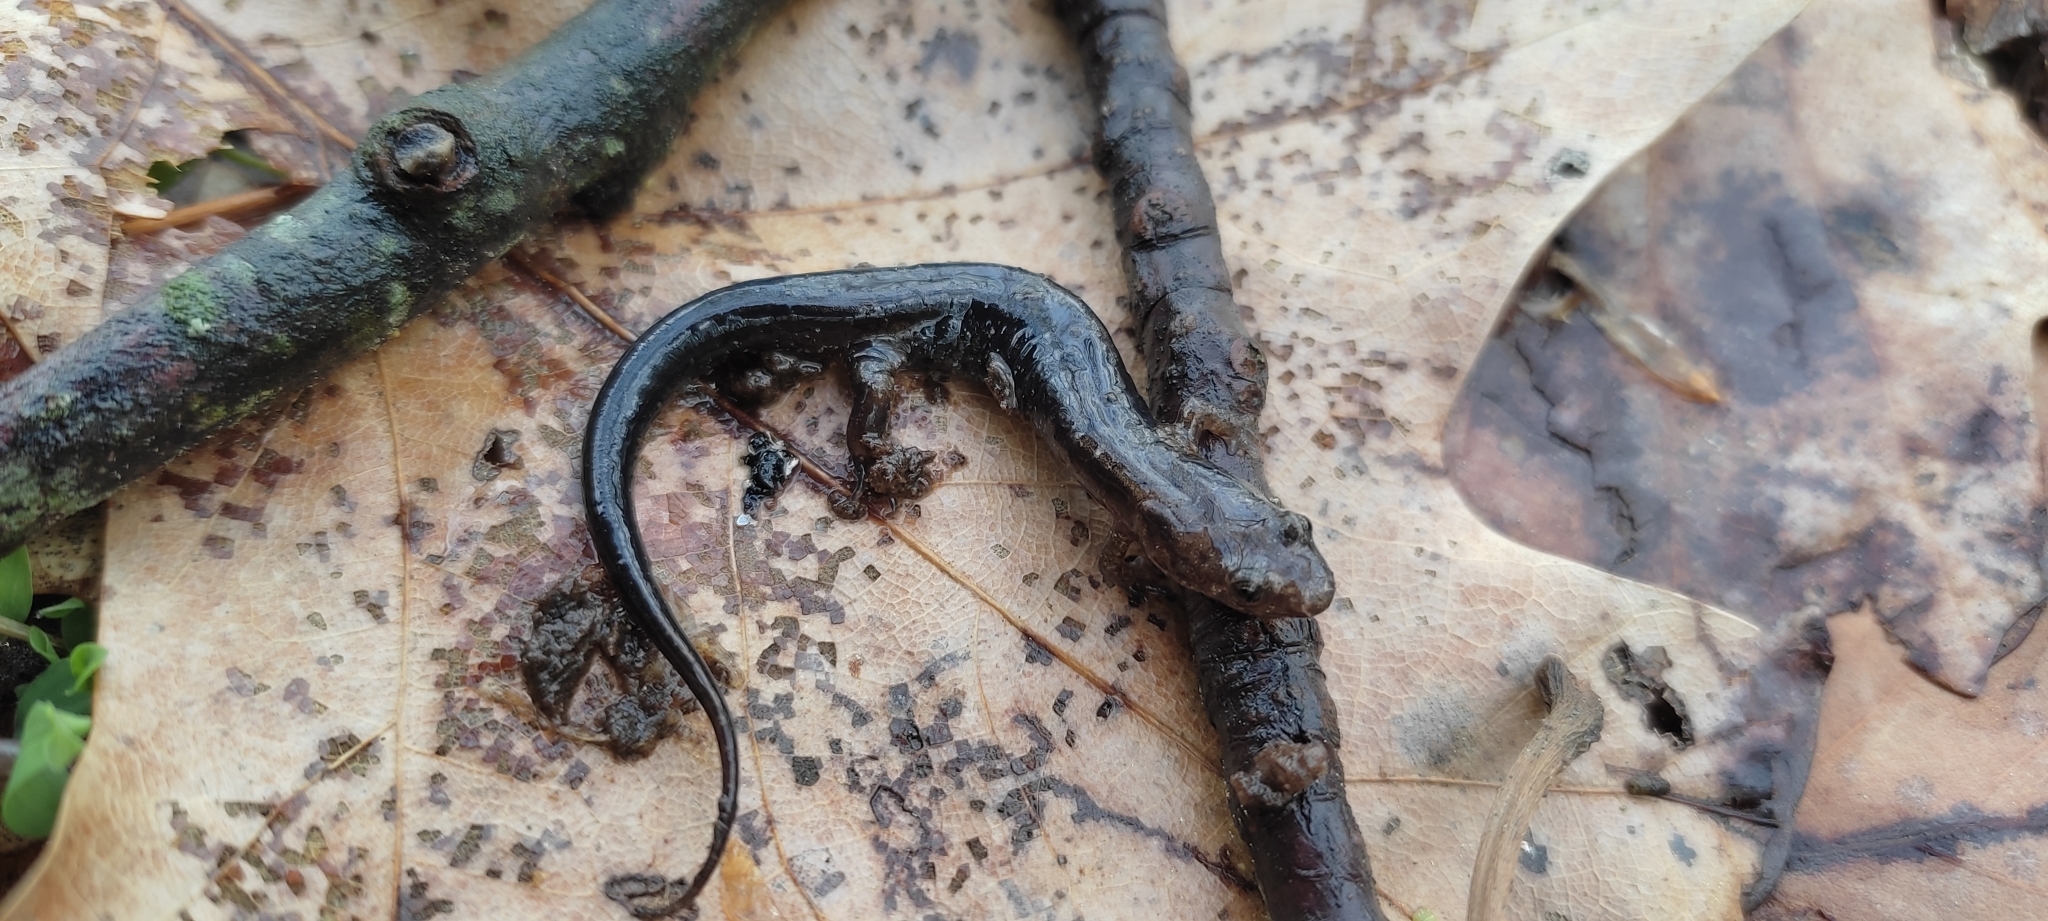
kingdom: Animalia
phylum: Chordata
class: Amphibia
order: Caudata
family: Plethodontidae
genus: Desmognathus
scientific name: Desmognathus fuscus
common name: Northern dusky salamander
